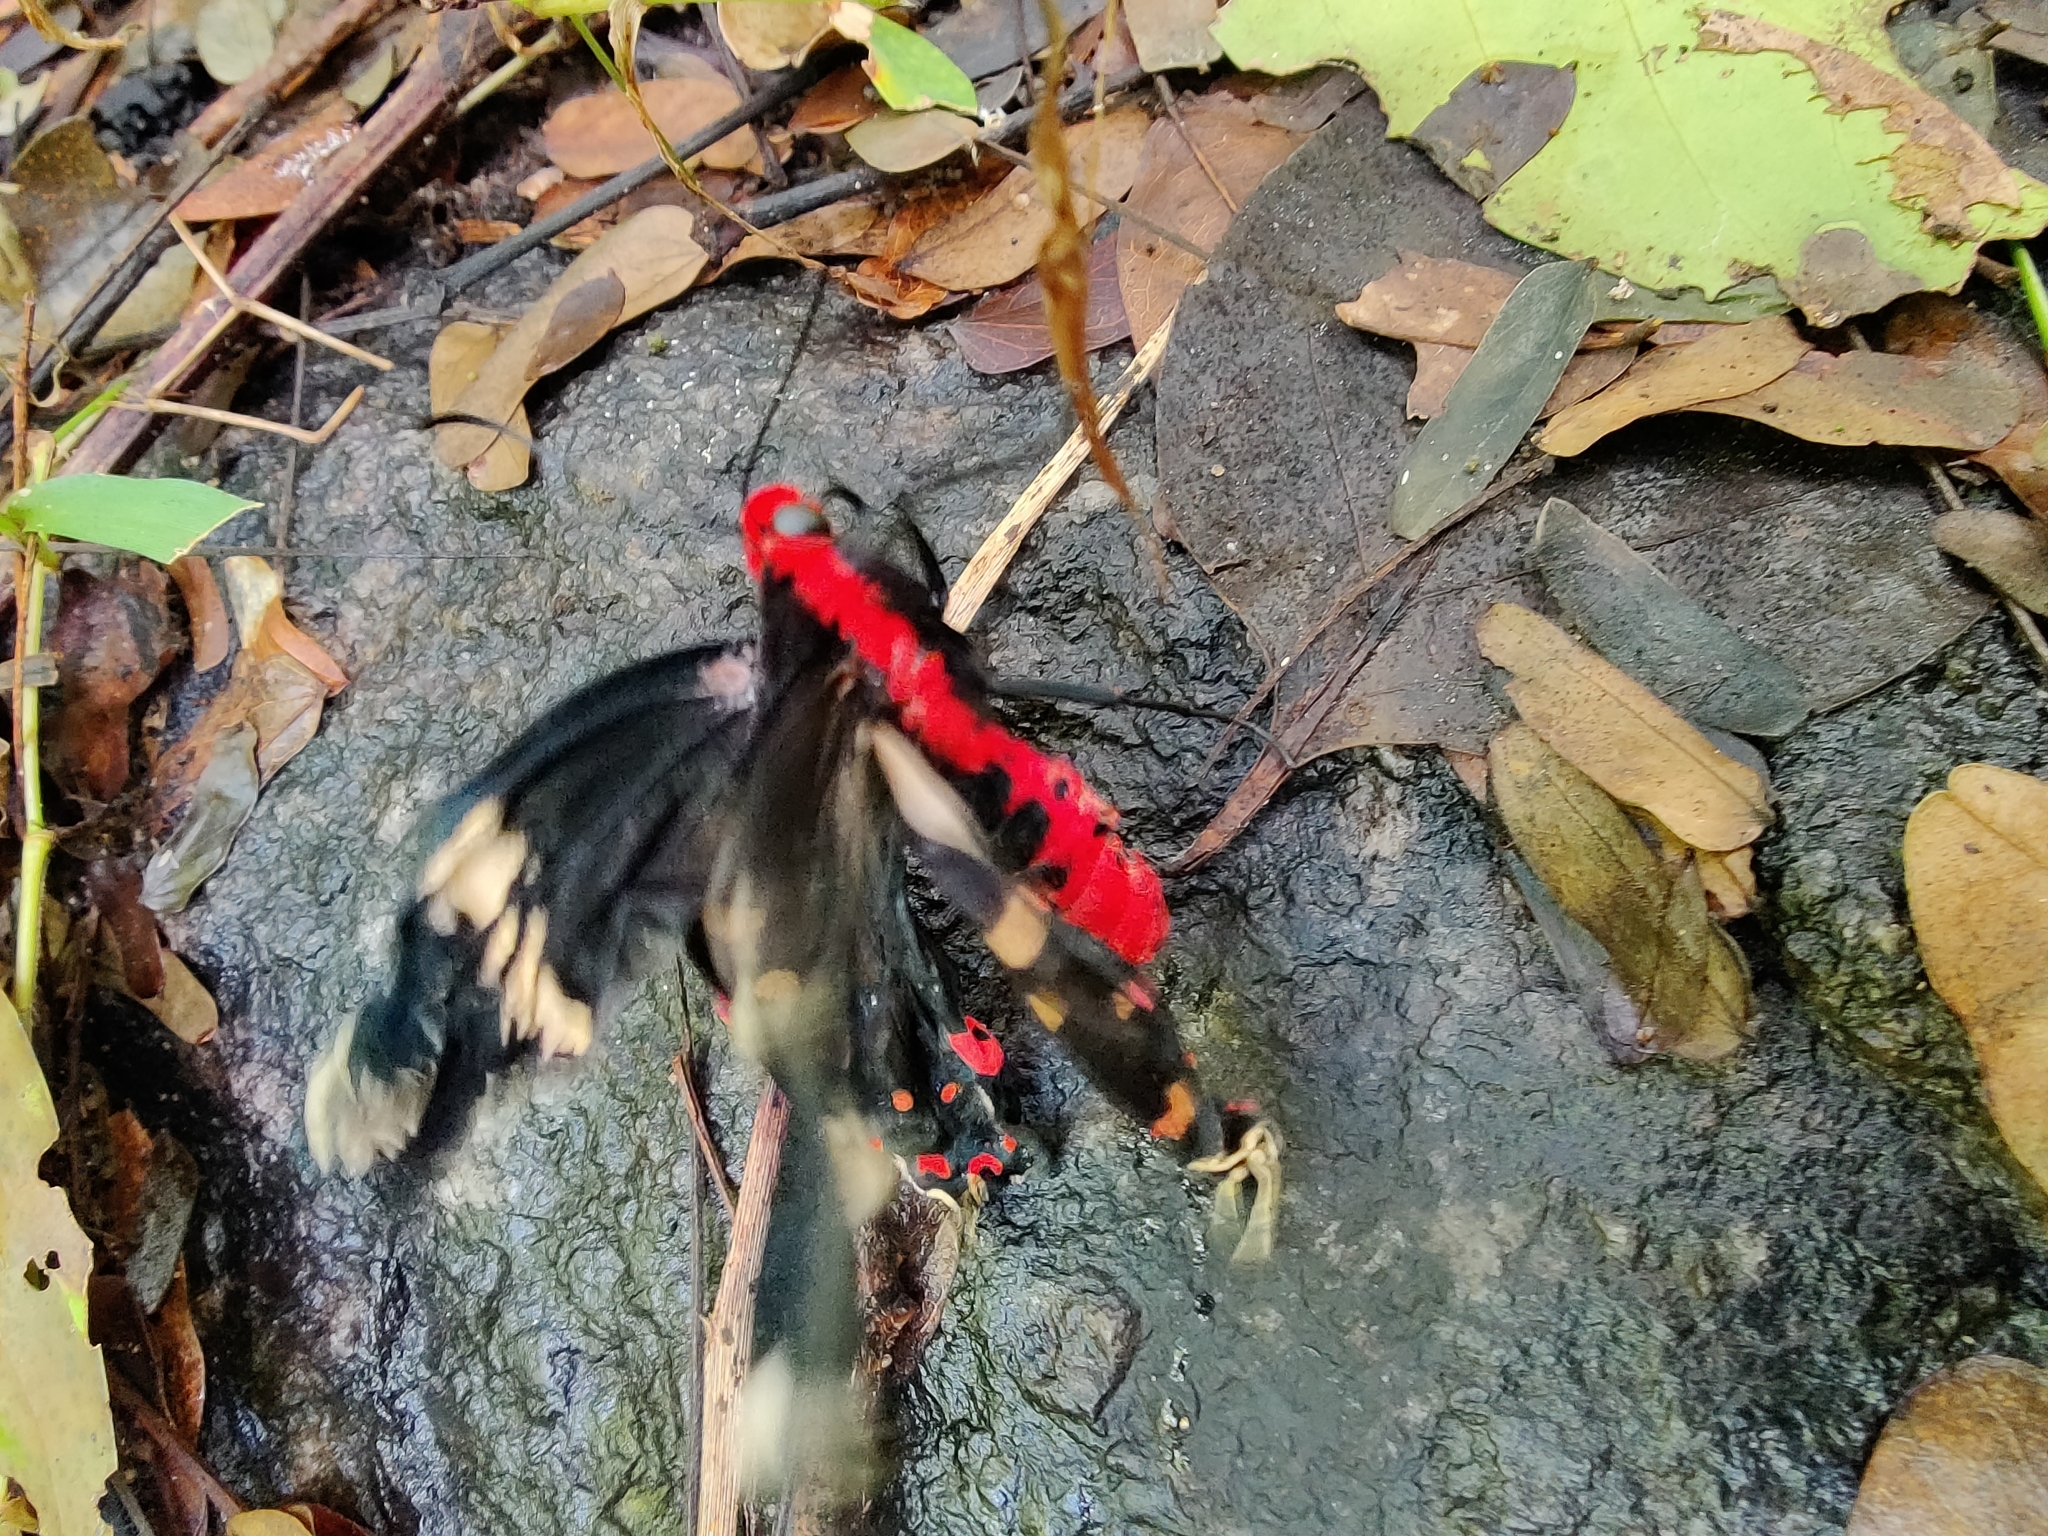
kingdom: Animalia
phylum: Arthropoda
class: Insecta
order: Lepidoptera
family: Papilionidae
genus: Pachliopta
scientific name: Pachliopta hector
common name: Crimson rose
